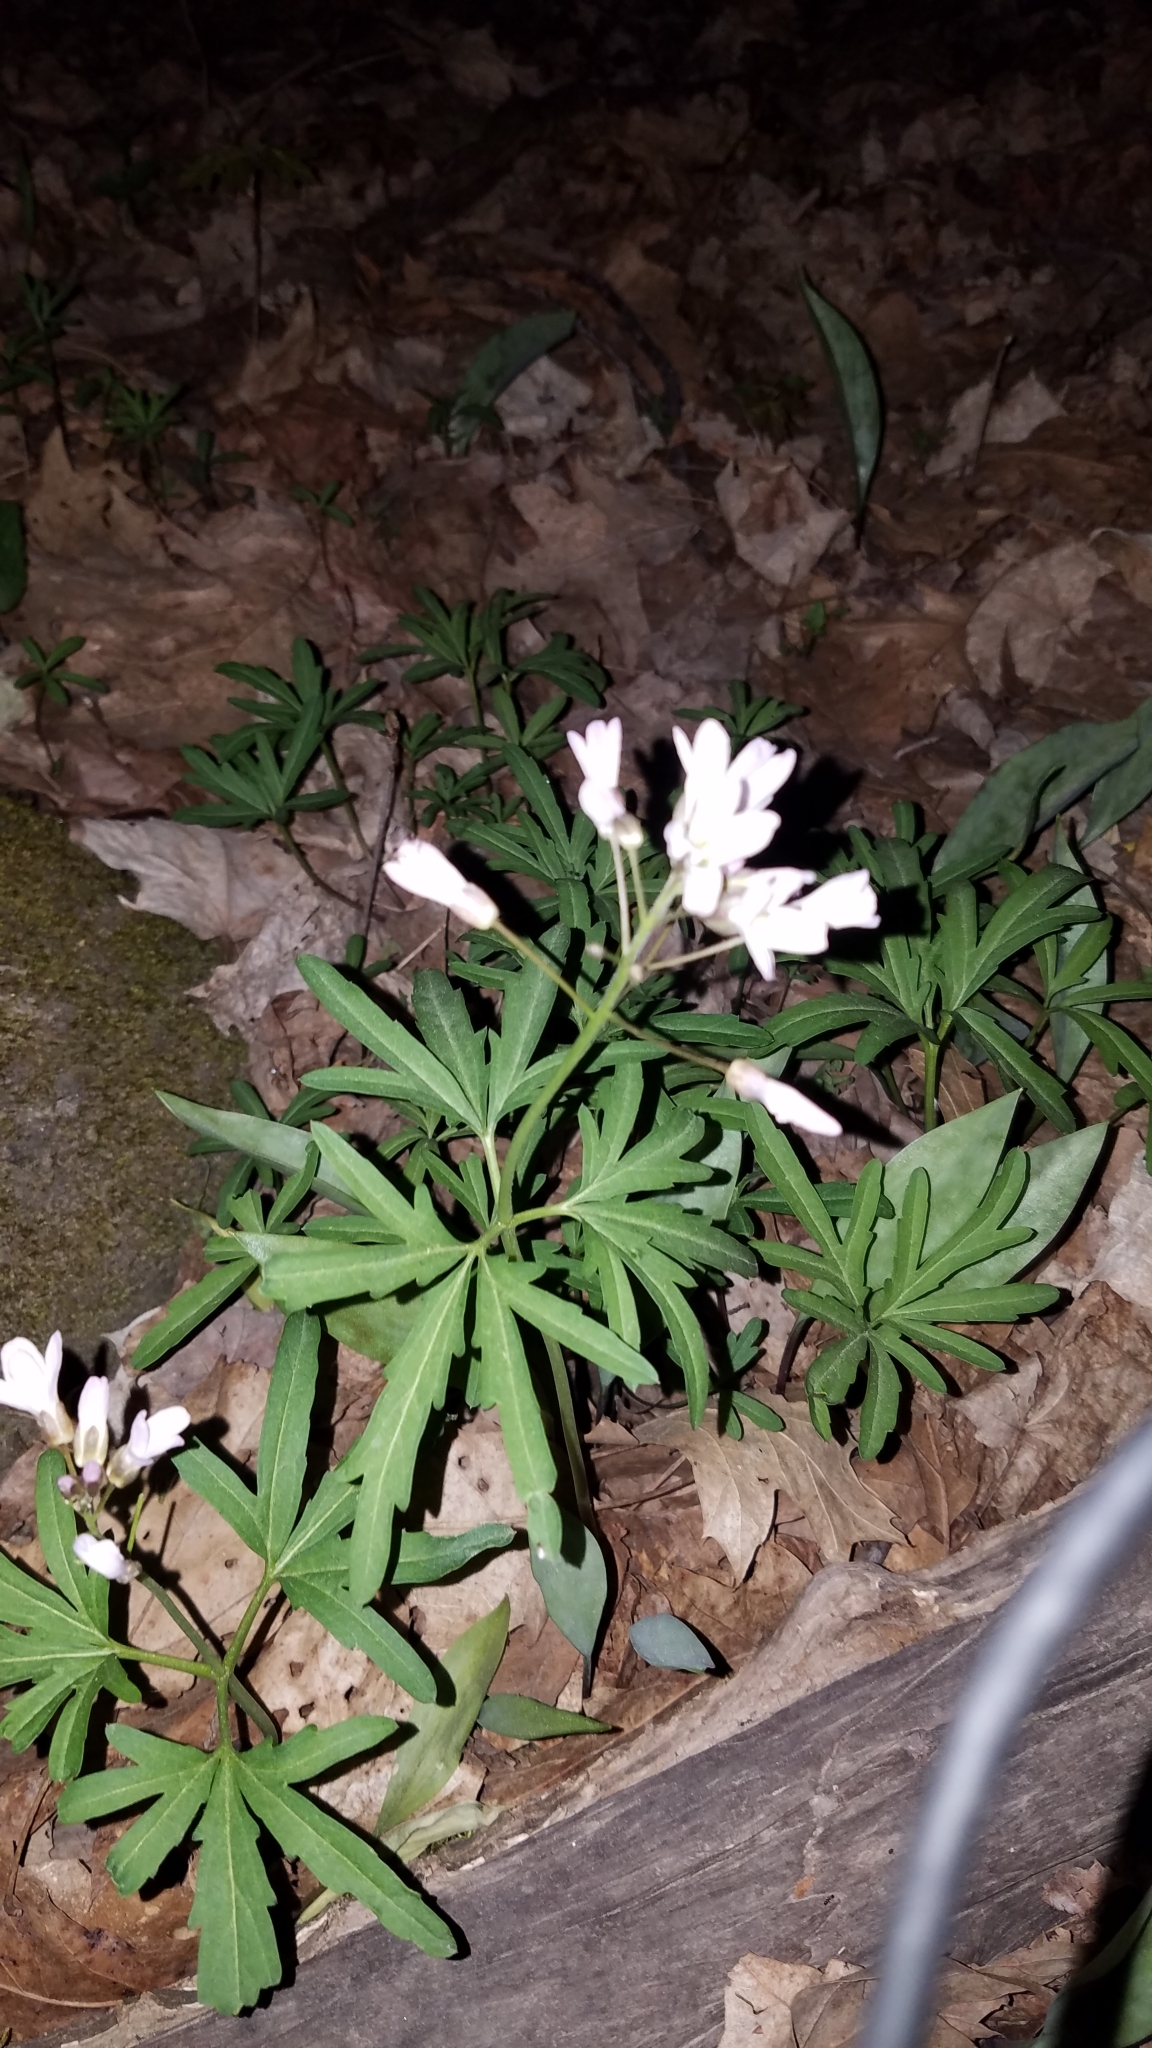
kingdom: Plantae
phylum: Tracheophyta
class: Magnoliopsida
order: Brassicales
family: Brassicaceae
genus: Cardamine
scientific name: Cardamine concatenata
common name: Cut-leaf toothcup
